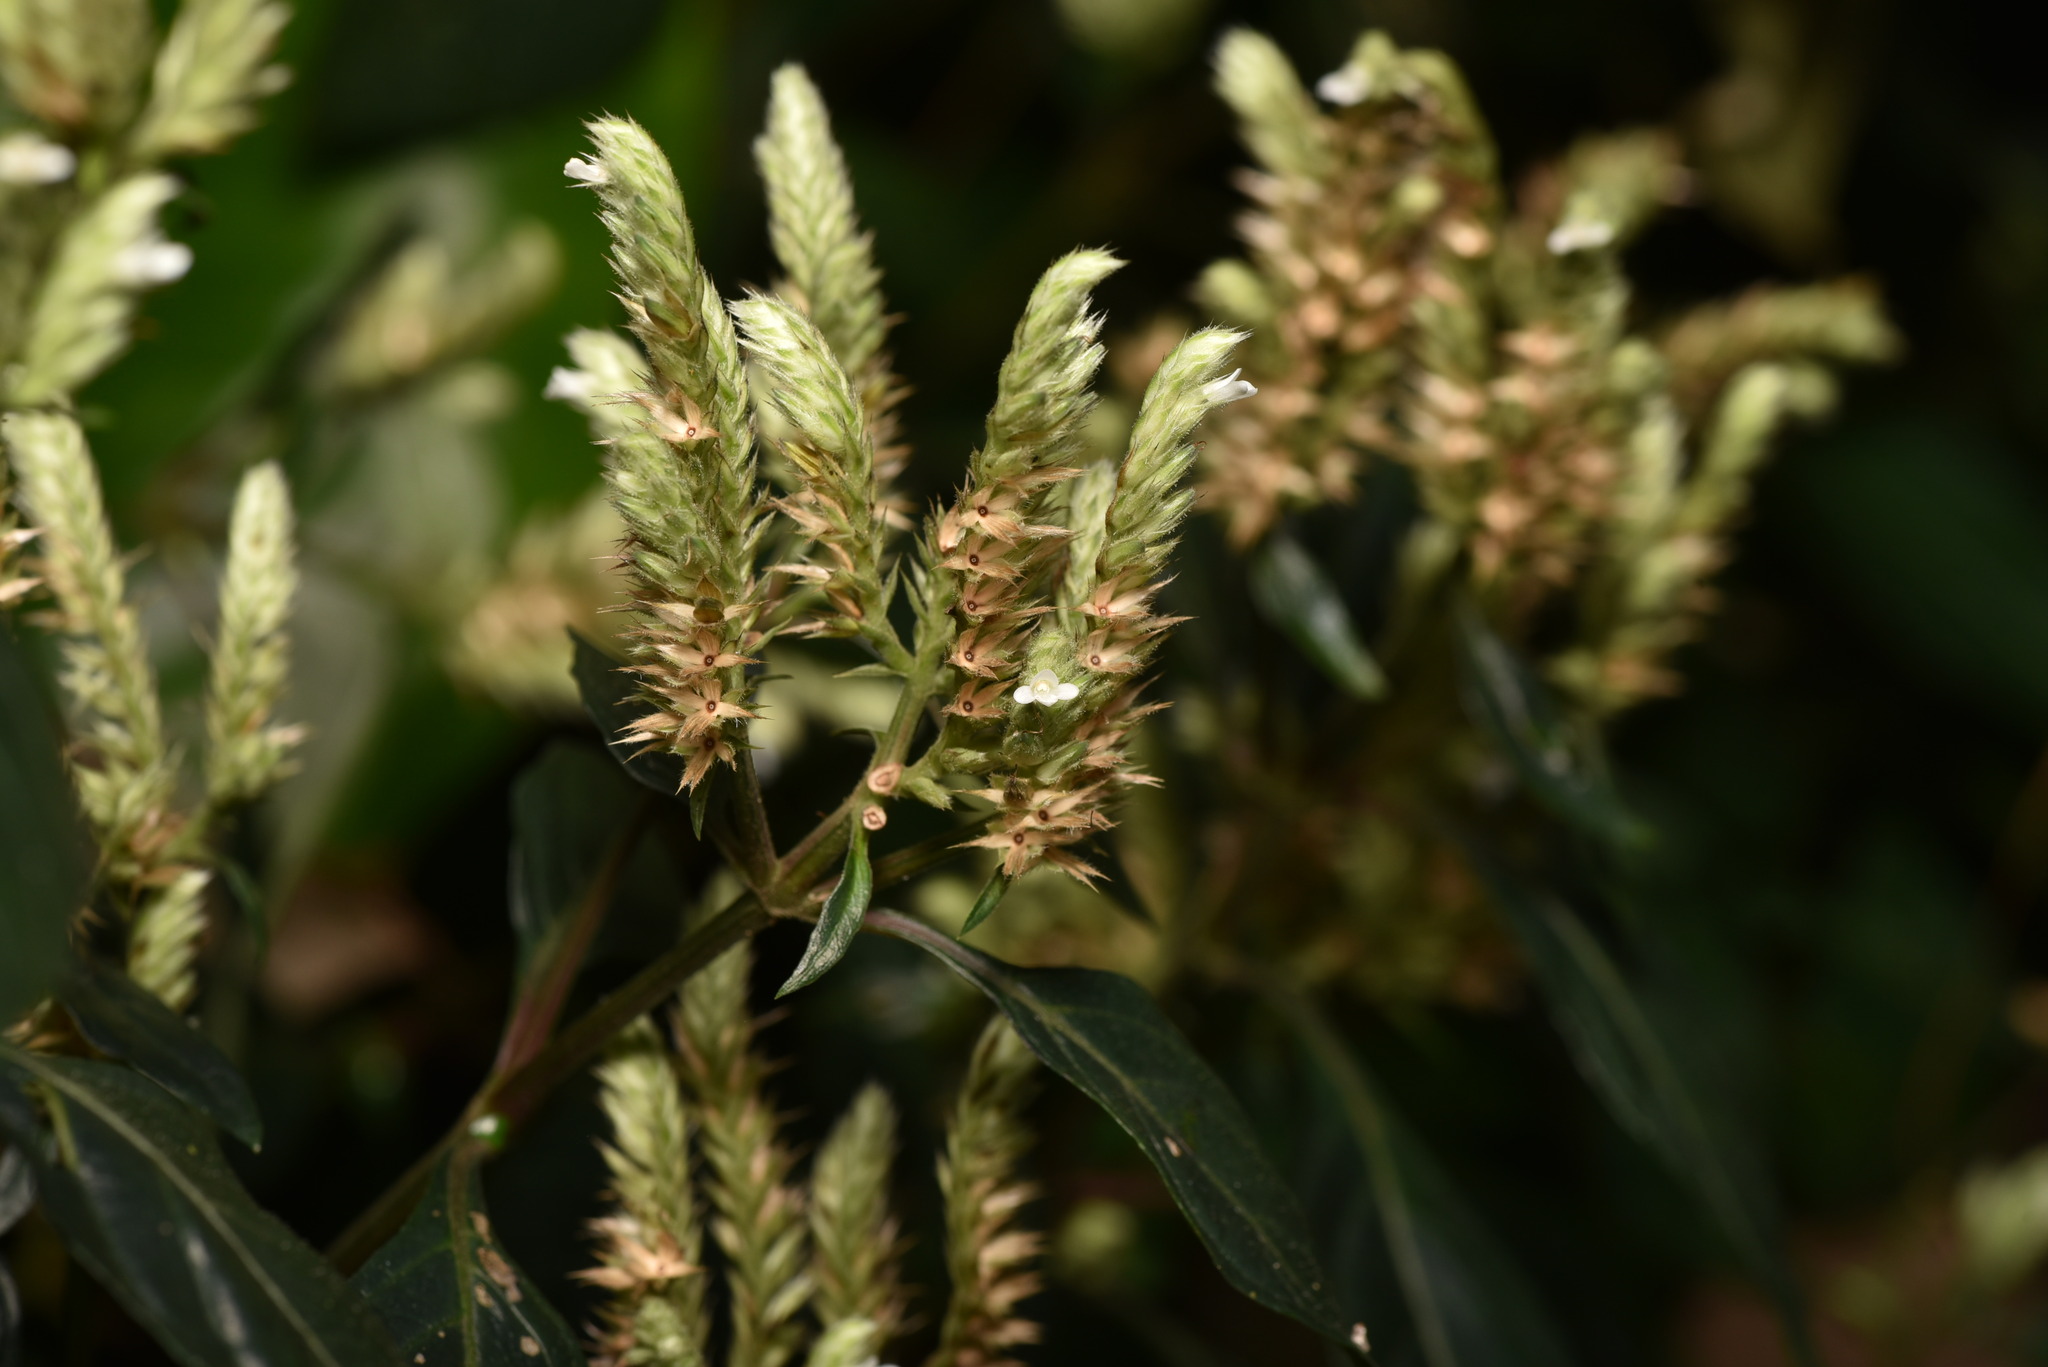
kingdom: Plantae
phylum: Tracheophyta
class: Magnoliopsida
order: Lamiales
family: Acanthaceae
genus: Lepidagathis
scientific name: Lepidagathis formosensis
